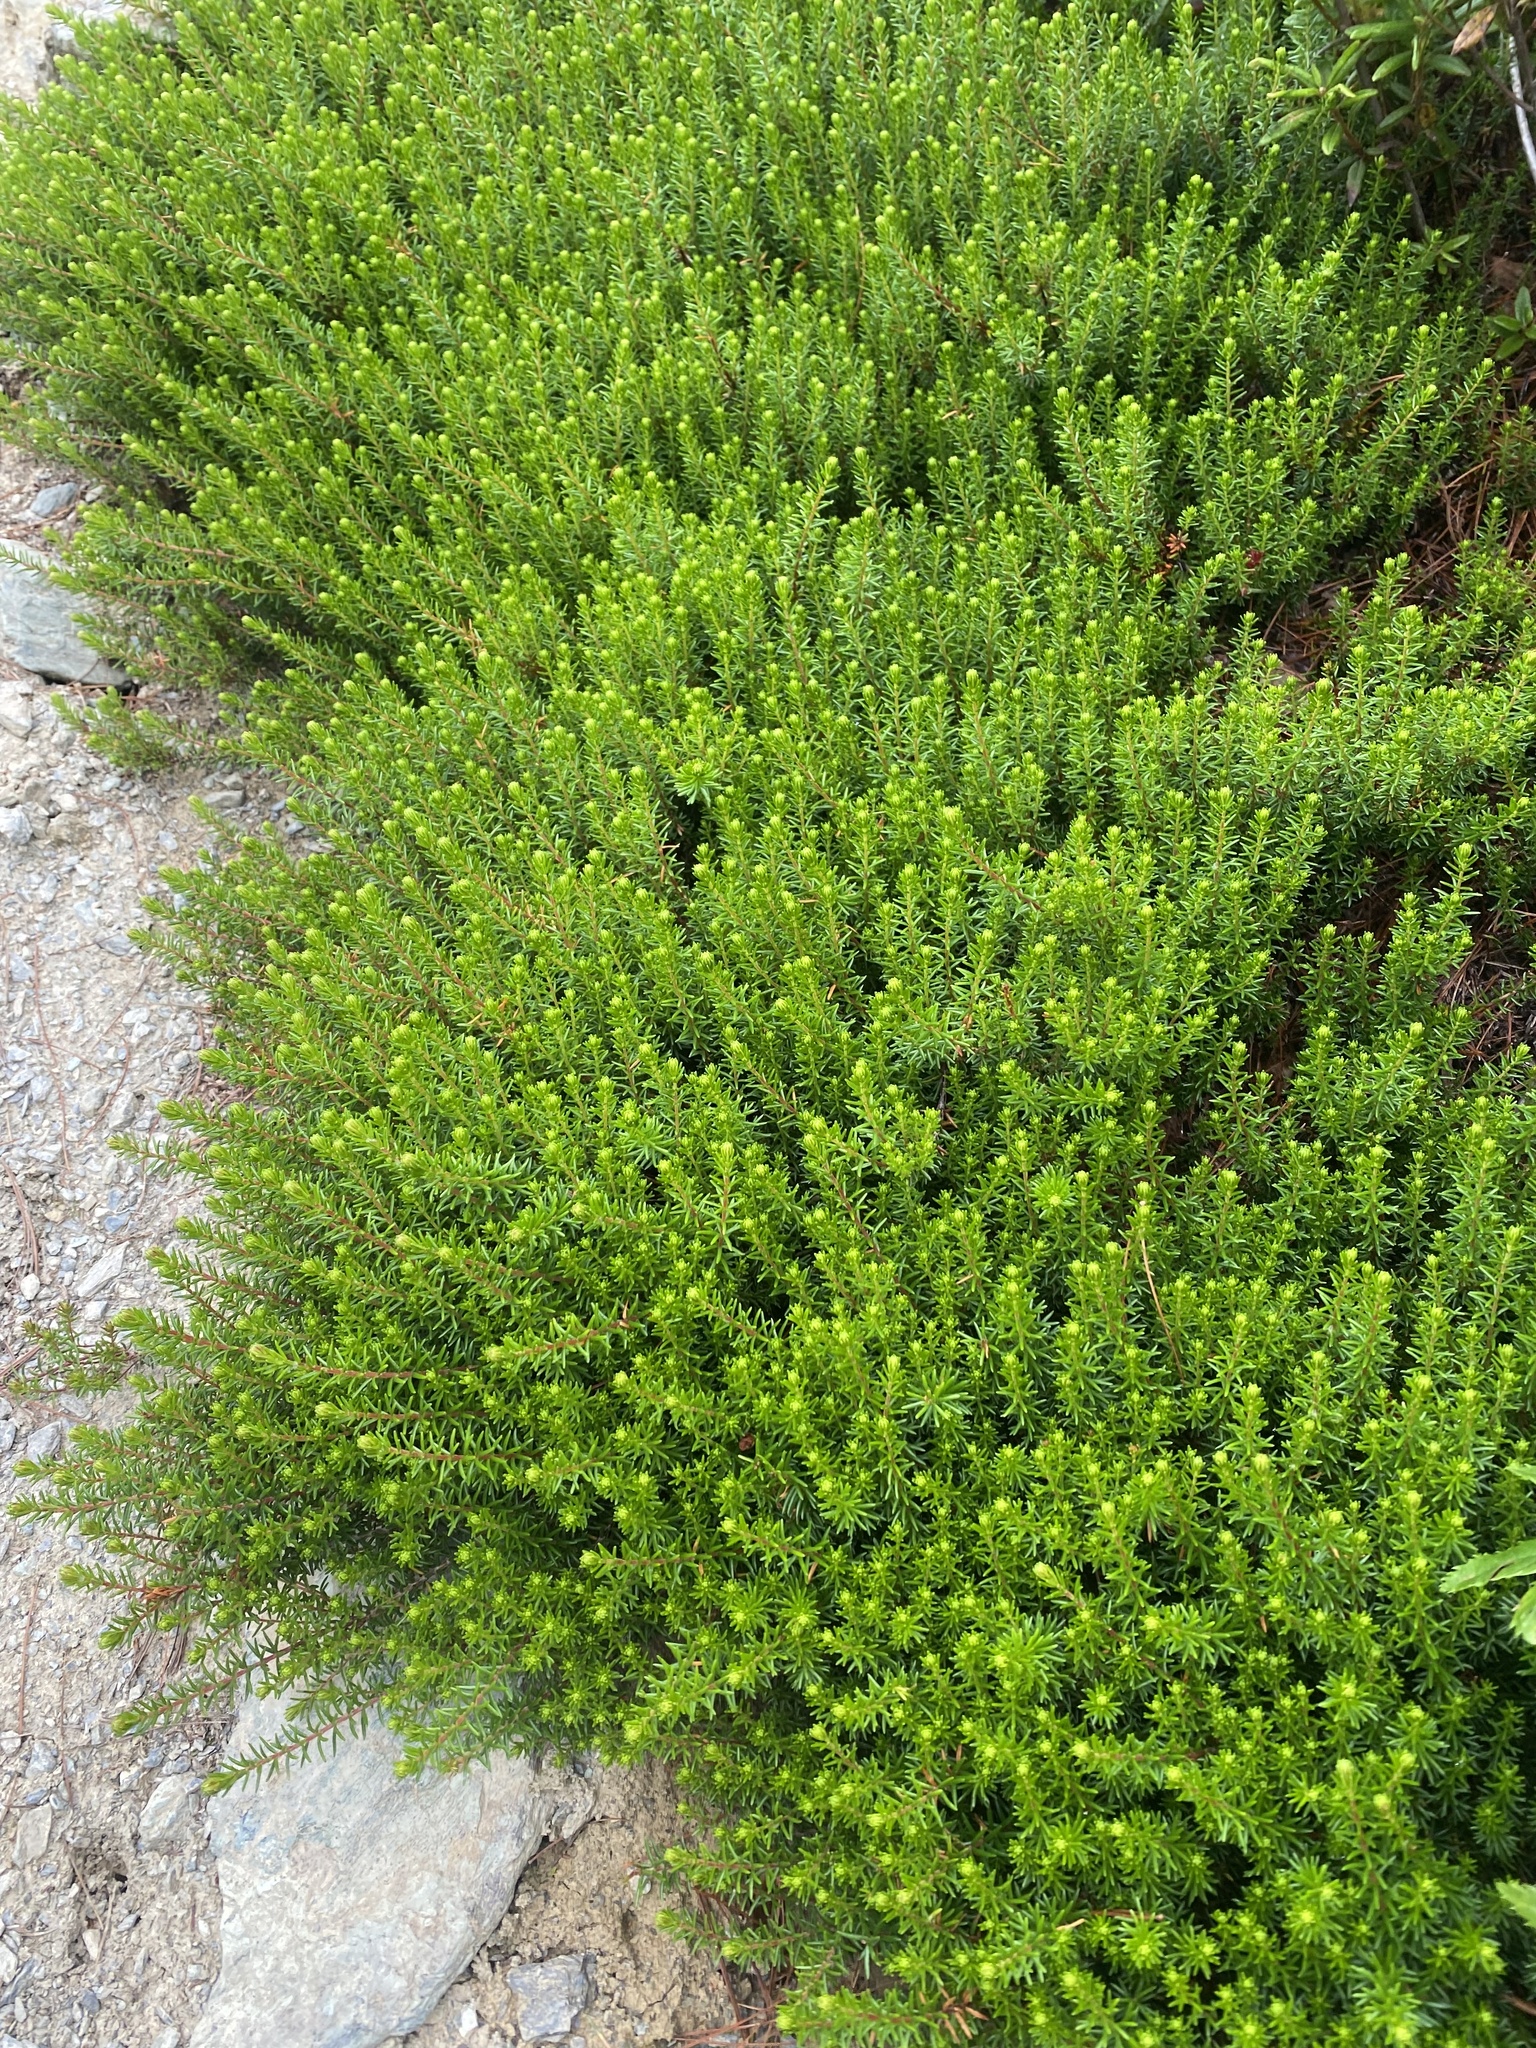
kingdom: Plantae
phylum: Tracheophyta
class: Magnoliopsida
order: Ericales
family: Ericaceae
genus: Empetrum
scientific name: Empetrum nigrum
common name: Black crowberry
